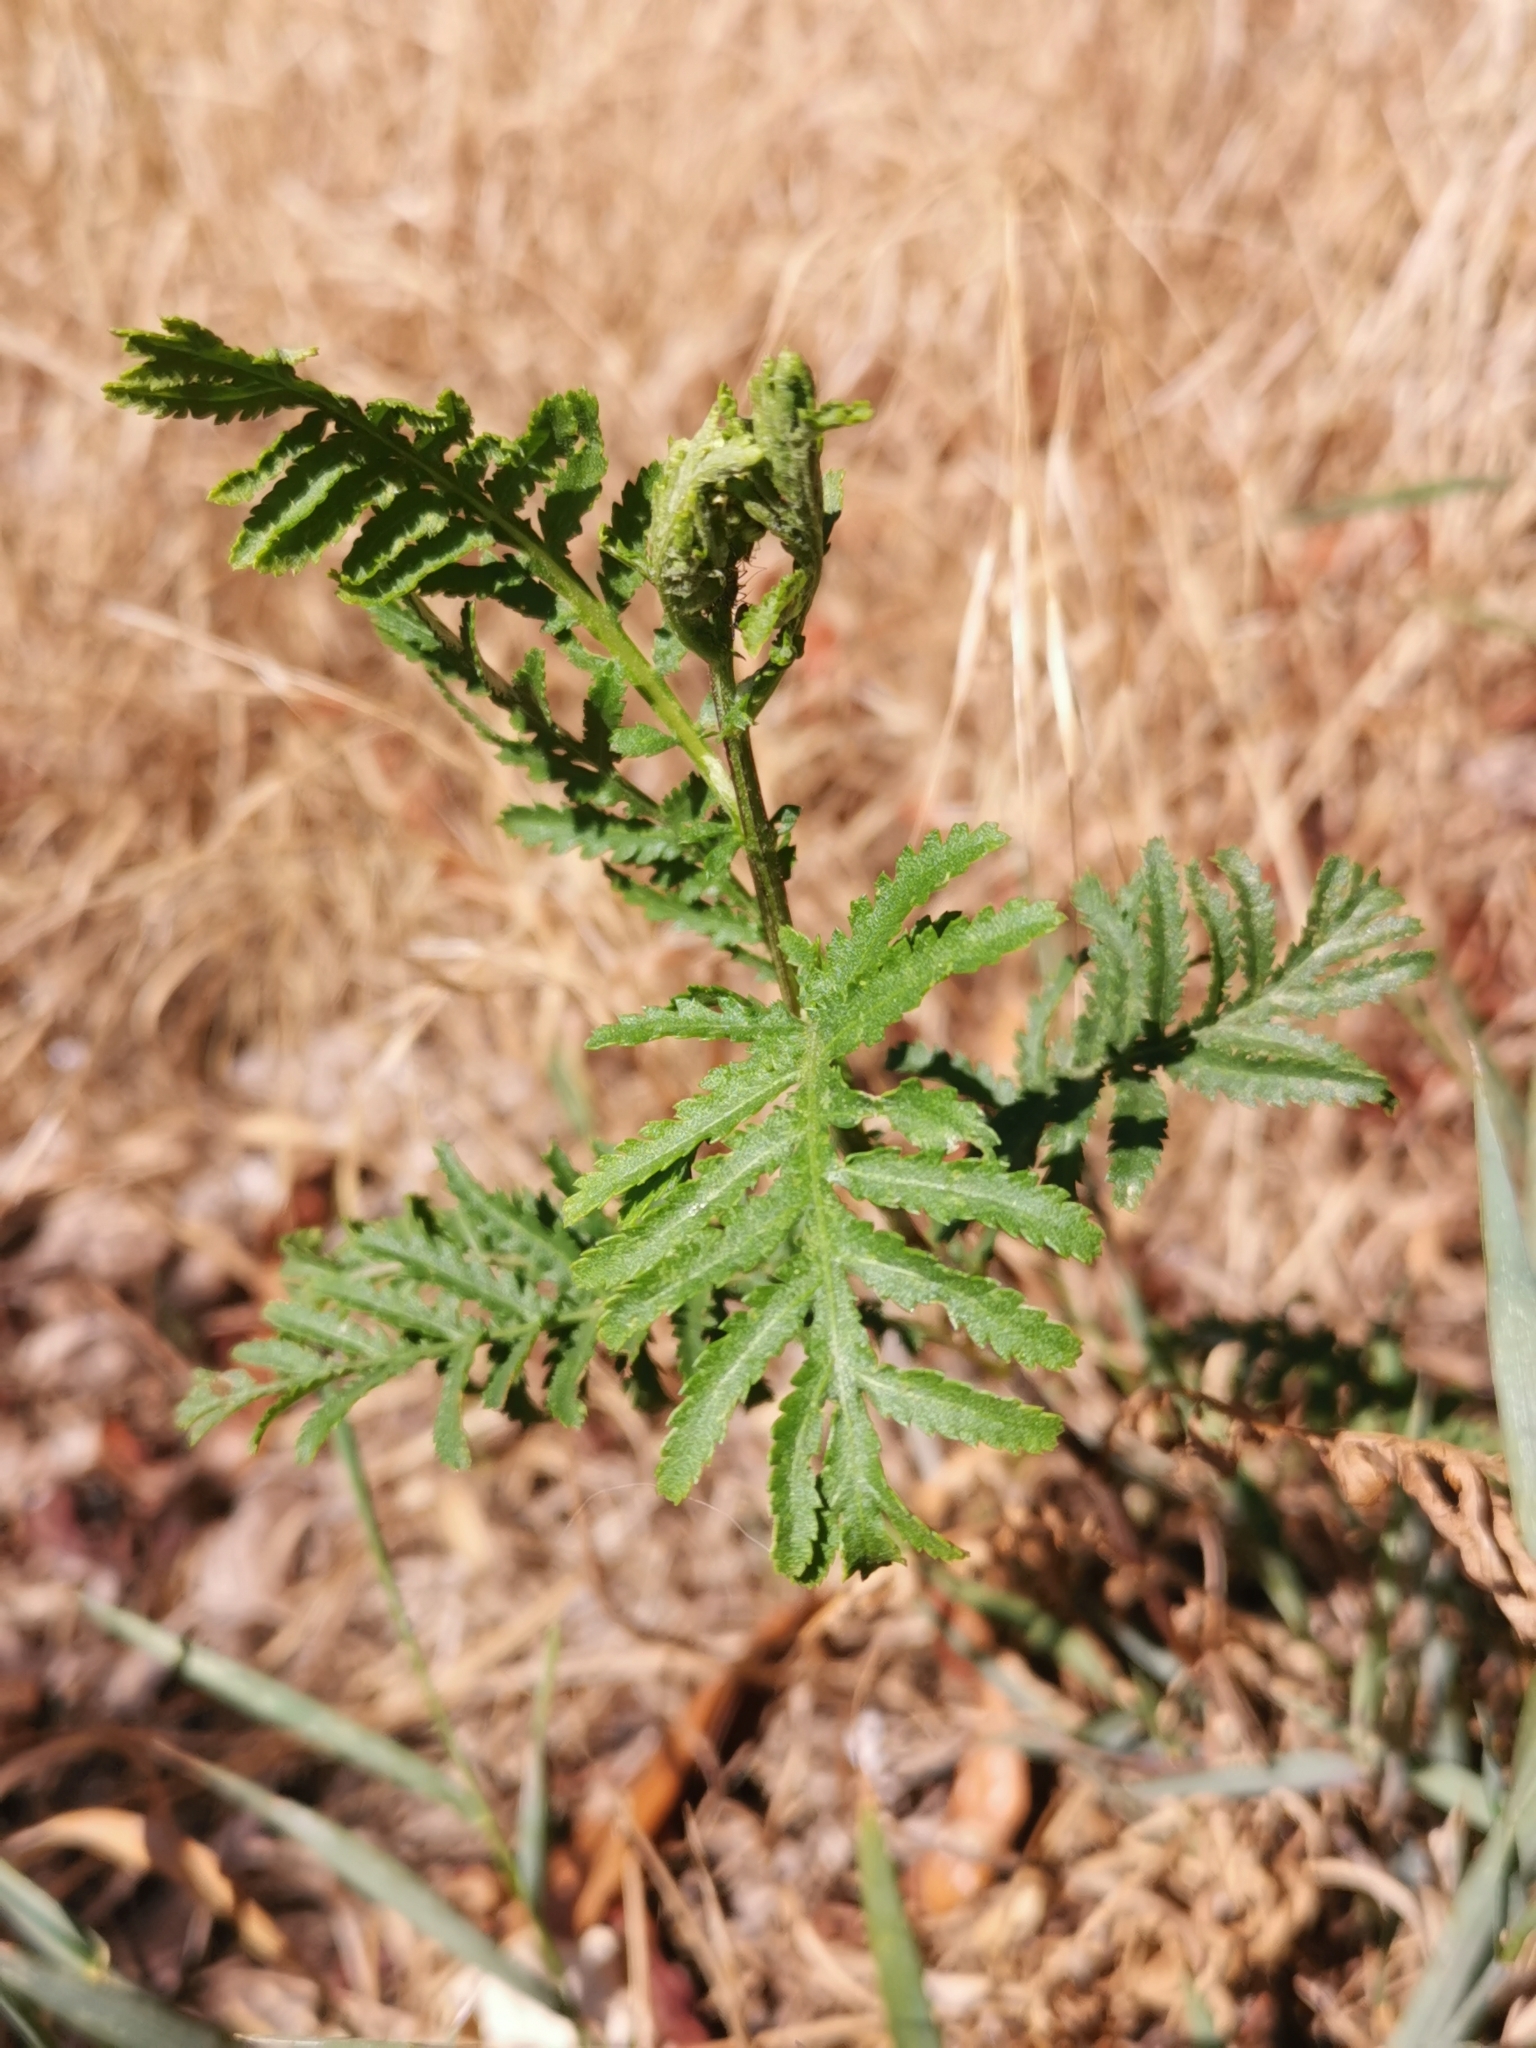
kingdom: Plantae
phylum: Tracheophyta
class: Magnoliopsida
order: Asterales
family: Asteraceae
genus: Tanacetum
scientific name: Tanacetum vulgare
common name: Common tansy
